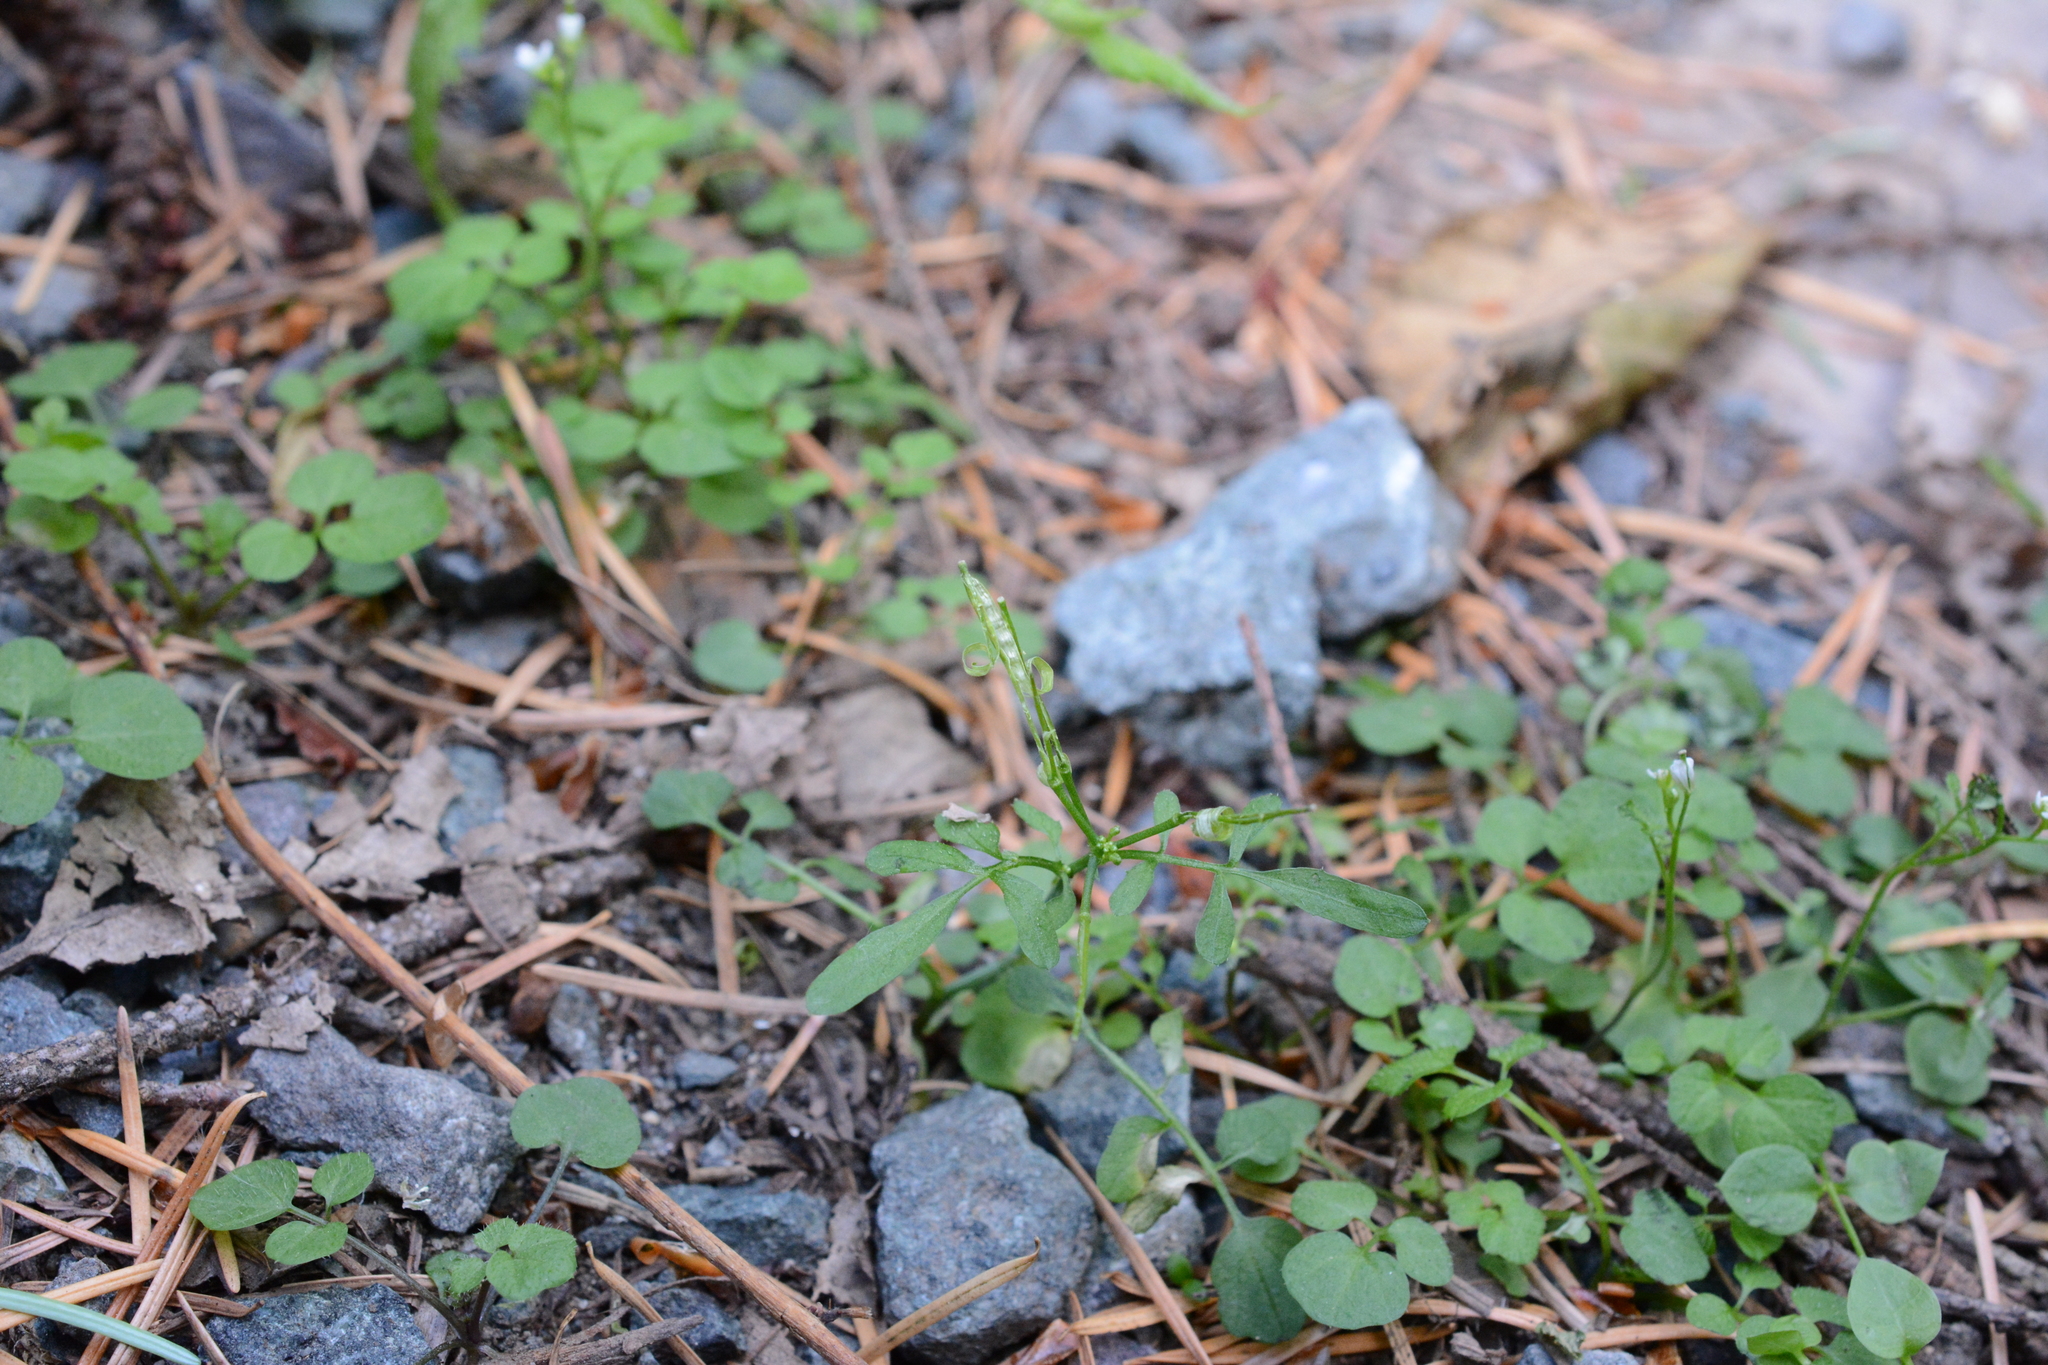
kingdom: Plantae
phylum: Tracheophyta
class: Magnoliopsida
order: Brassicales
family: Brassicaceae
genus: Cardamine
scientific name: Cardamine hirsuta
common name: Hairy bittercress
